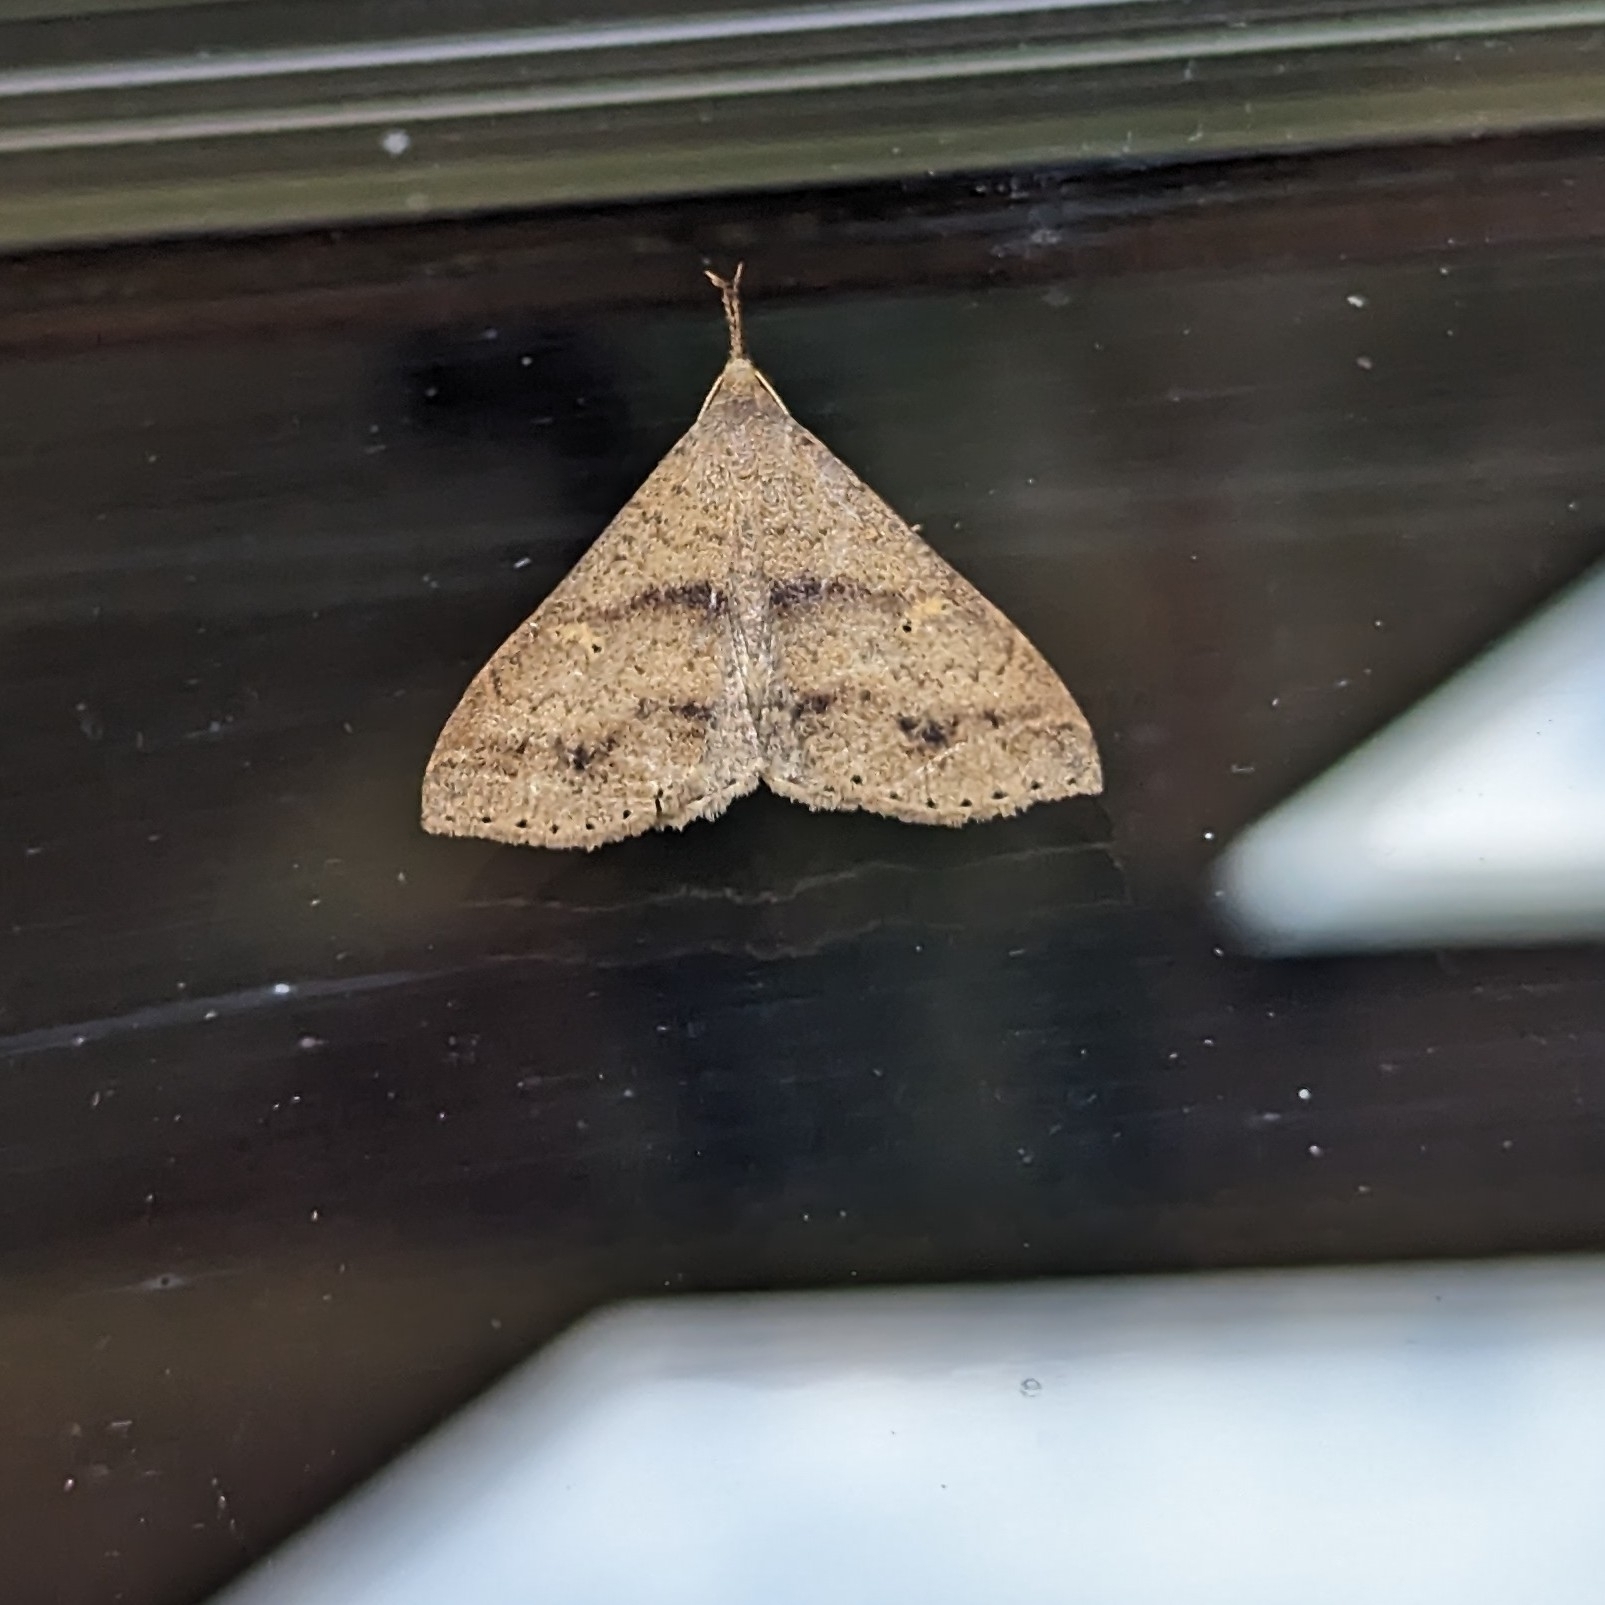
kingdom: Animalia
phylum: Arthropoda
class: Insecta
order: Lepidoptera
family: Erebidae
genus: Renia
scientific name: Renia salusalis
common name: Dotted renia moth
